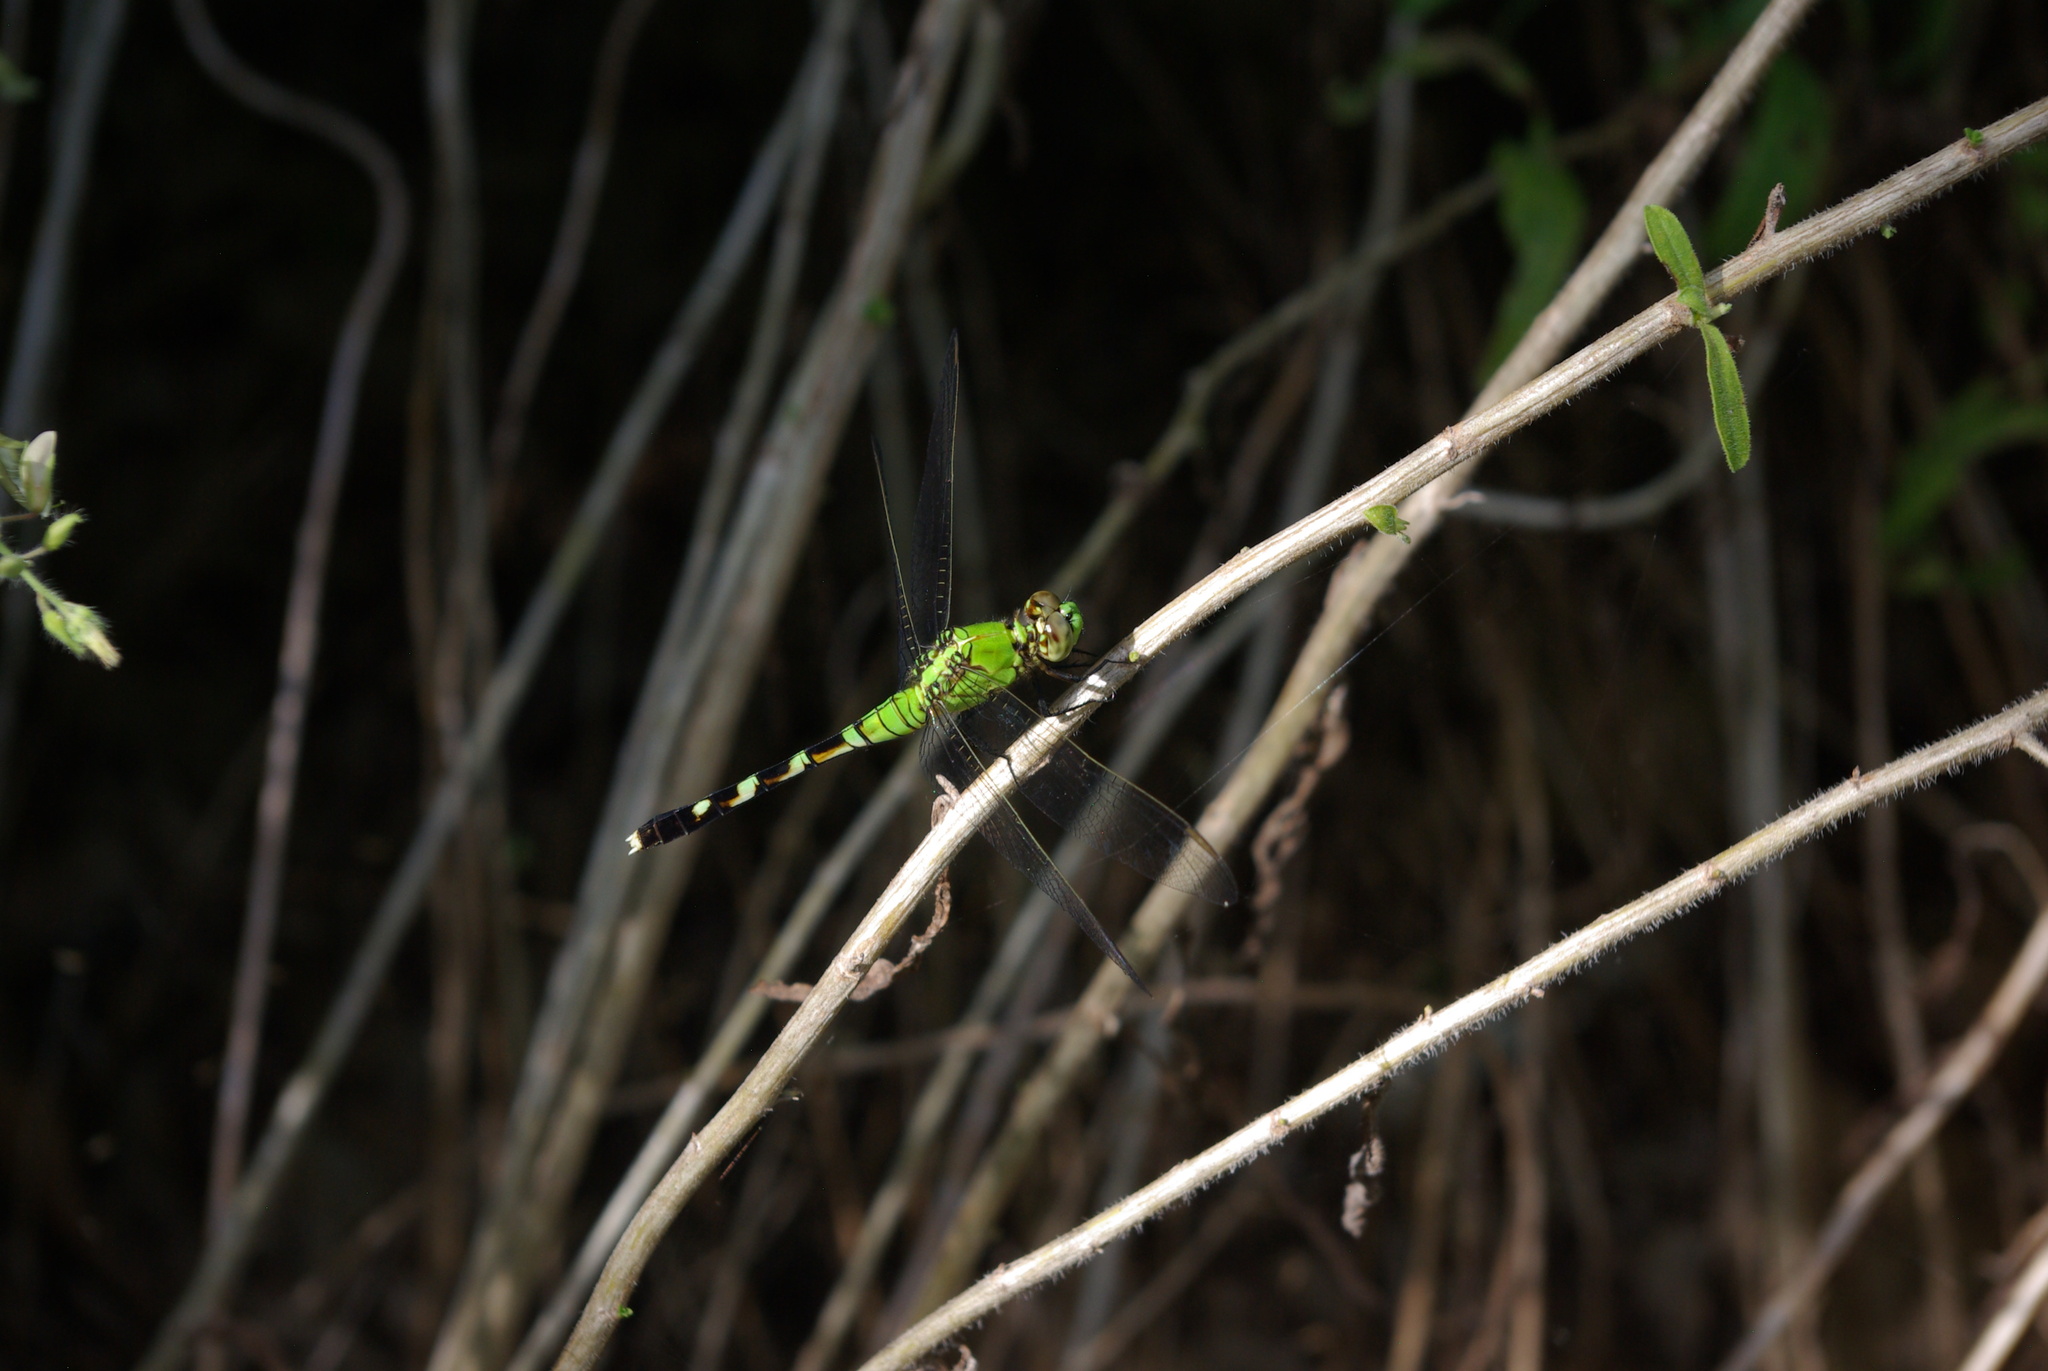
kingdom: Animalia
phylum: Arthropoda
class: Insecta
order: Odonata
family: Libellulidae
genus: Erythemis
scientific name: Erythemis simplicicollis
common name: Eastern pondhawk
